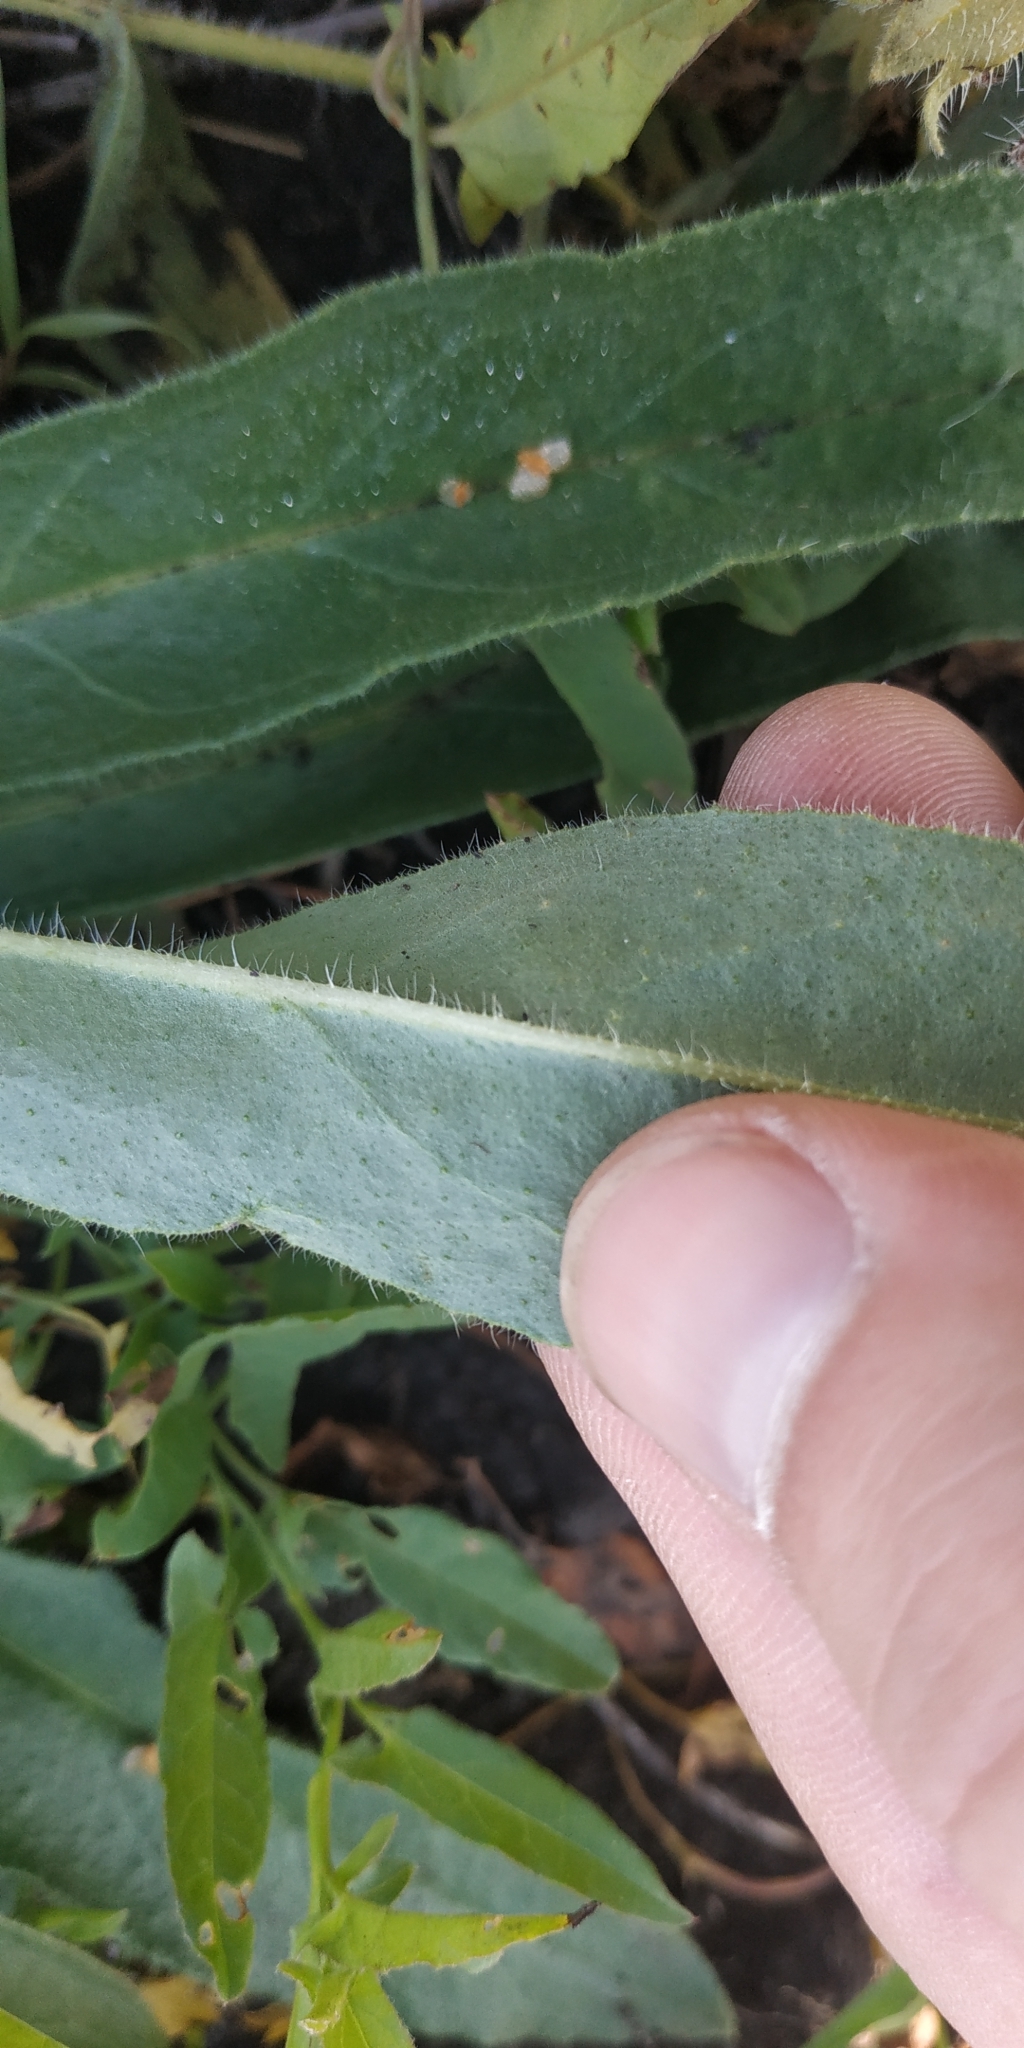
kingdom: Plantae
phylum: Tracheophyta
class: Magnoliopsida
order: Boraginales
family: Boraginaceae
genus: Nonea
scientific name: Nonea pulla
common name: Brown nonea
